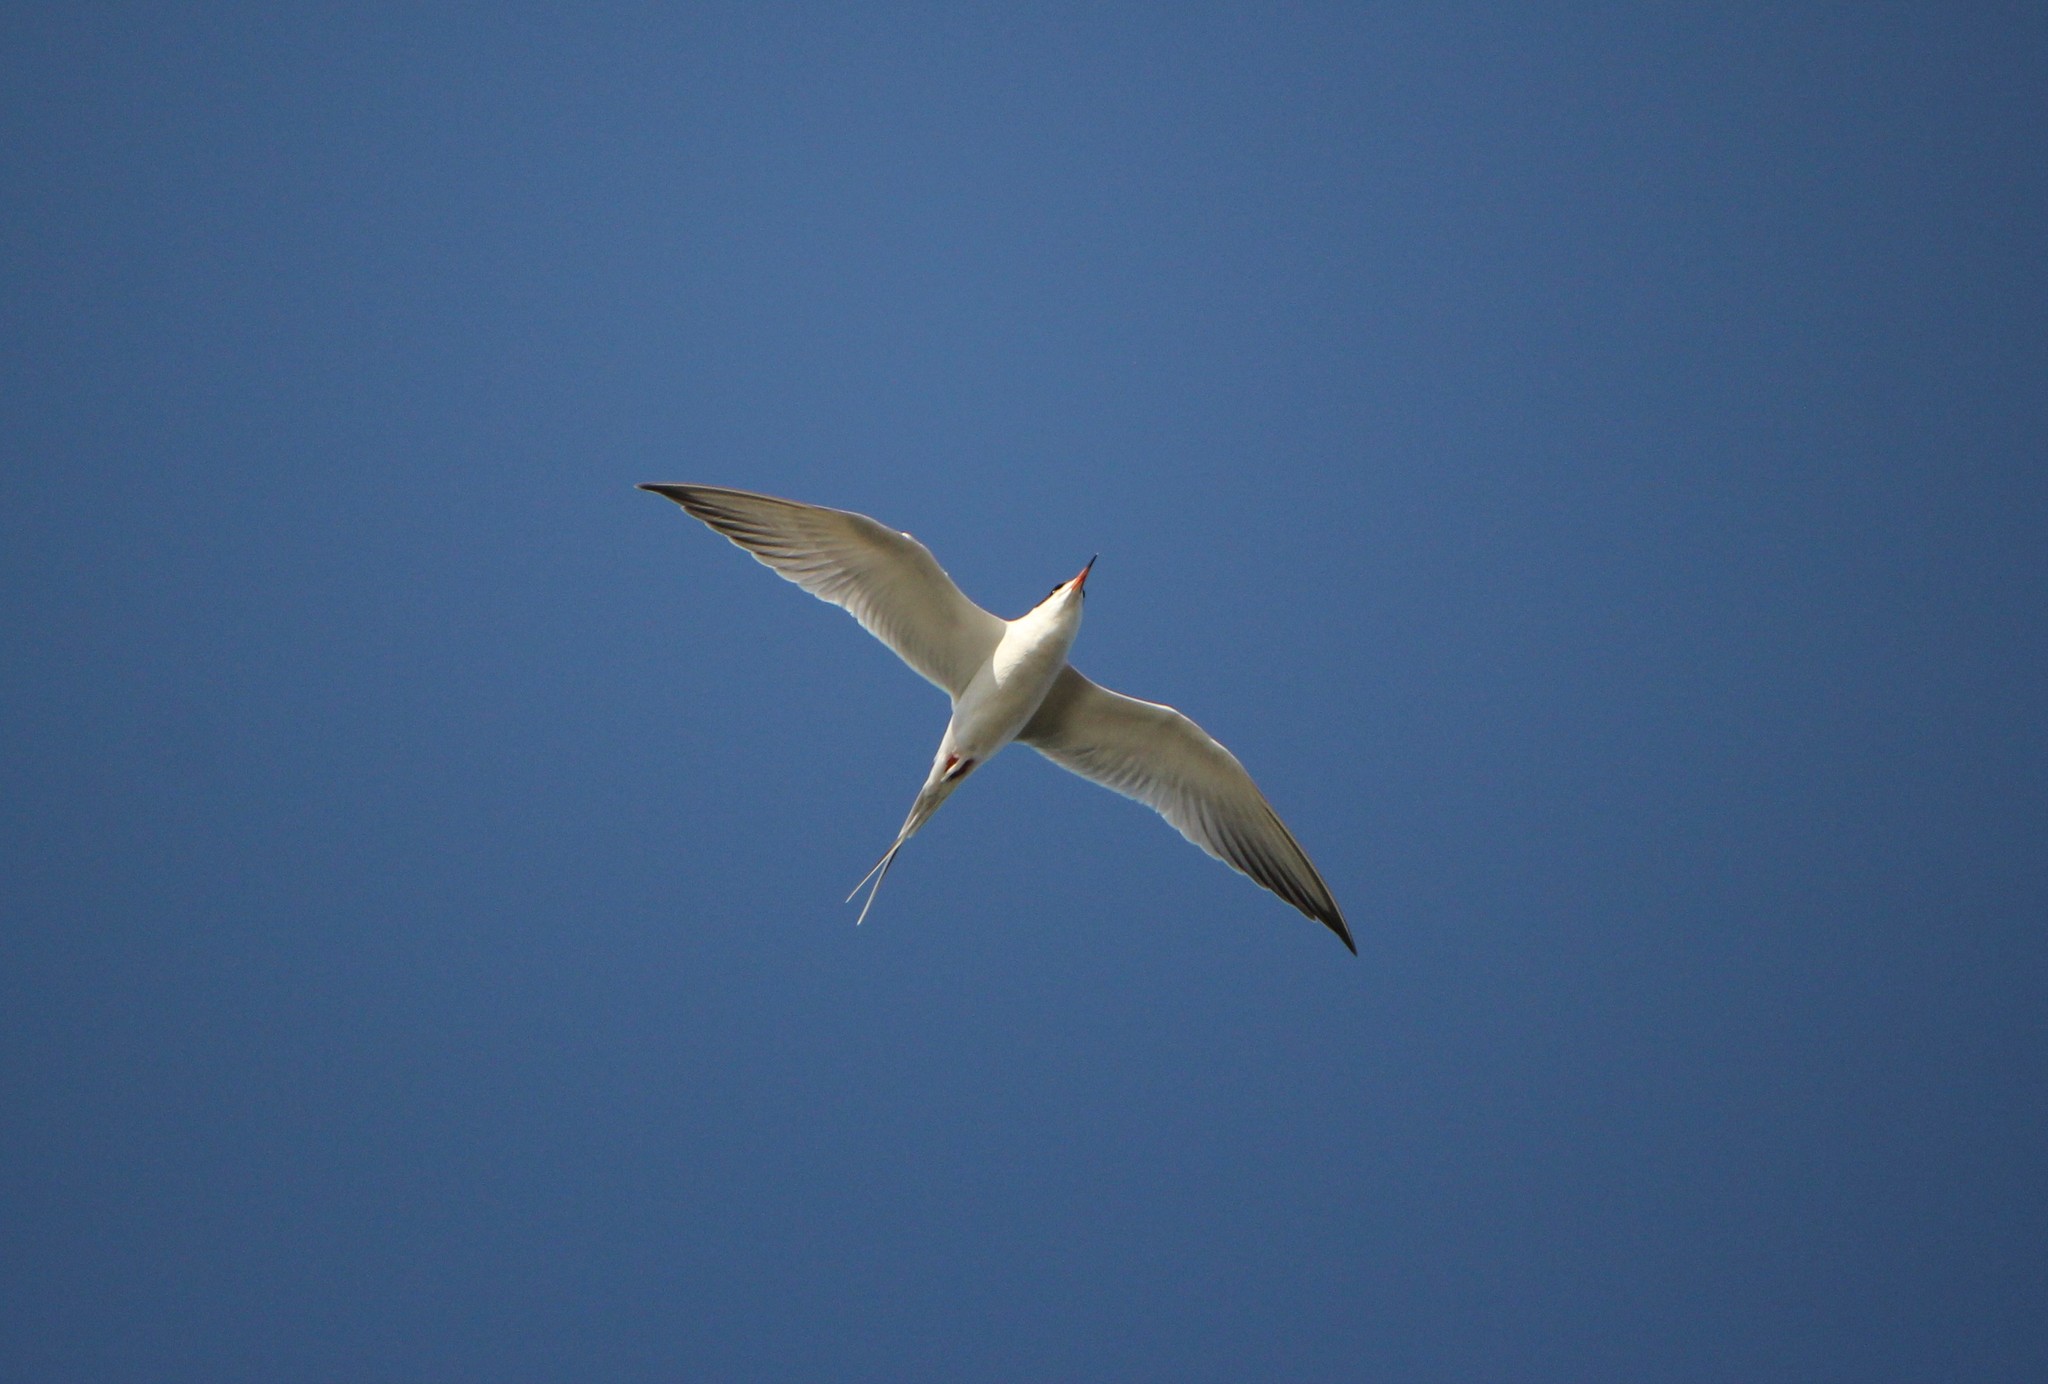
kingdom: Animalia
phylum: Chordata
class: Aves
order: Charadriiformes
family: Laridae
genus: Sterna
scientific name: Sterna forsteri
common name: Forster's tern
